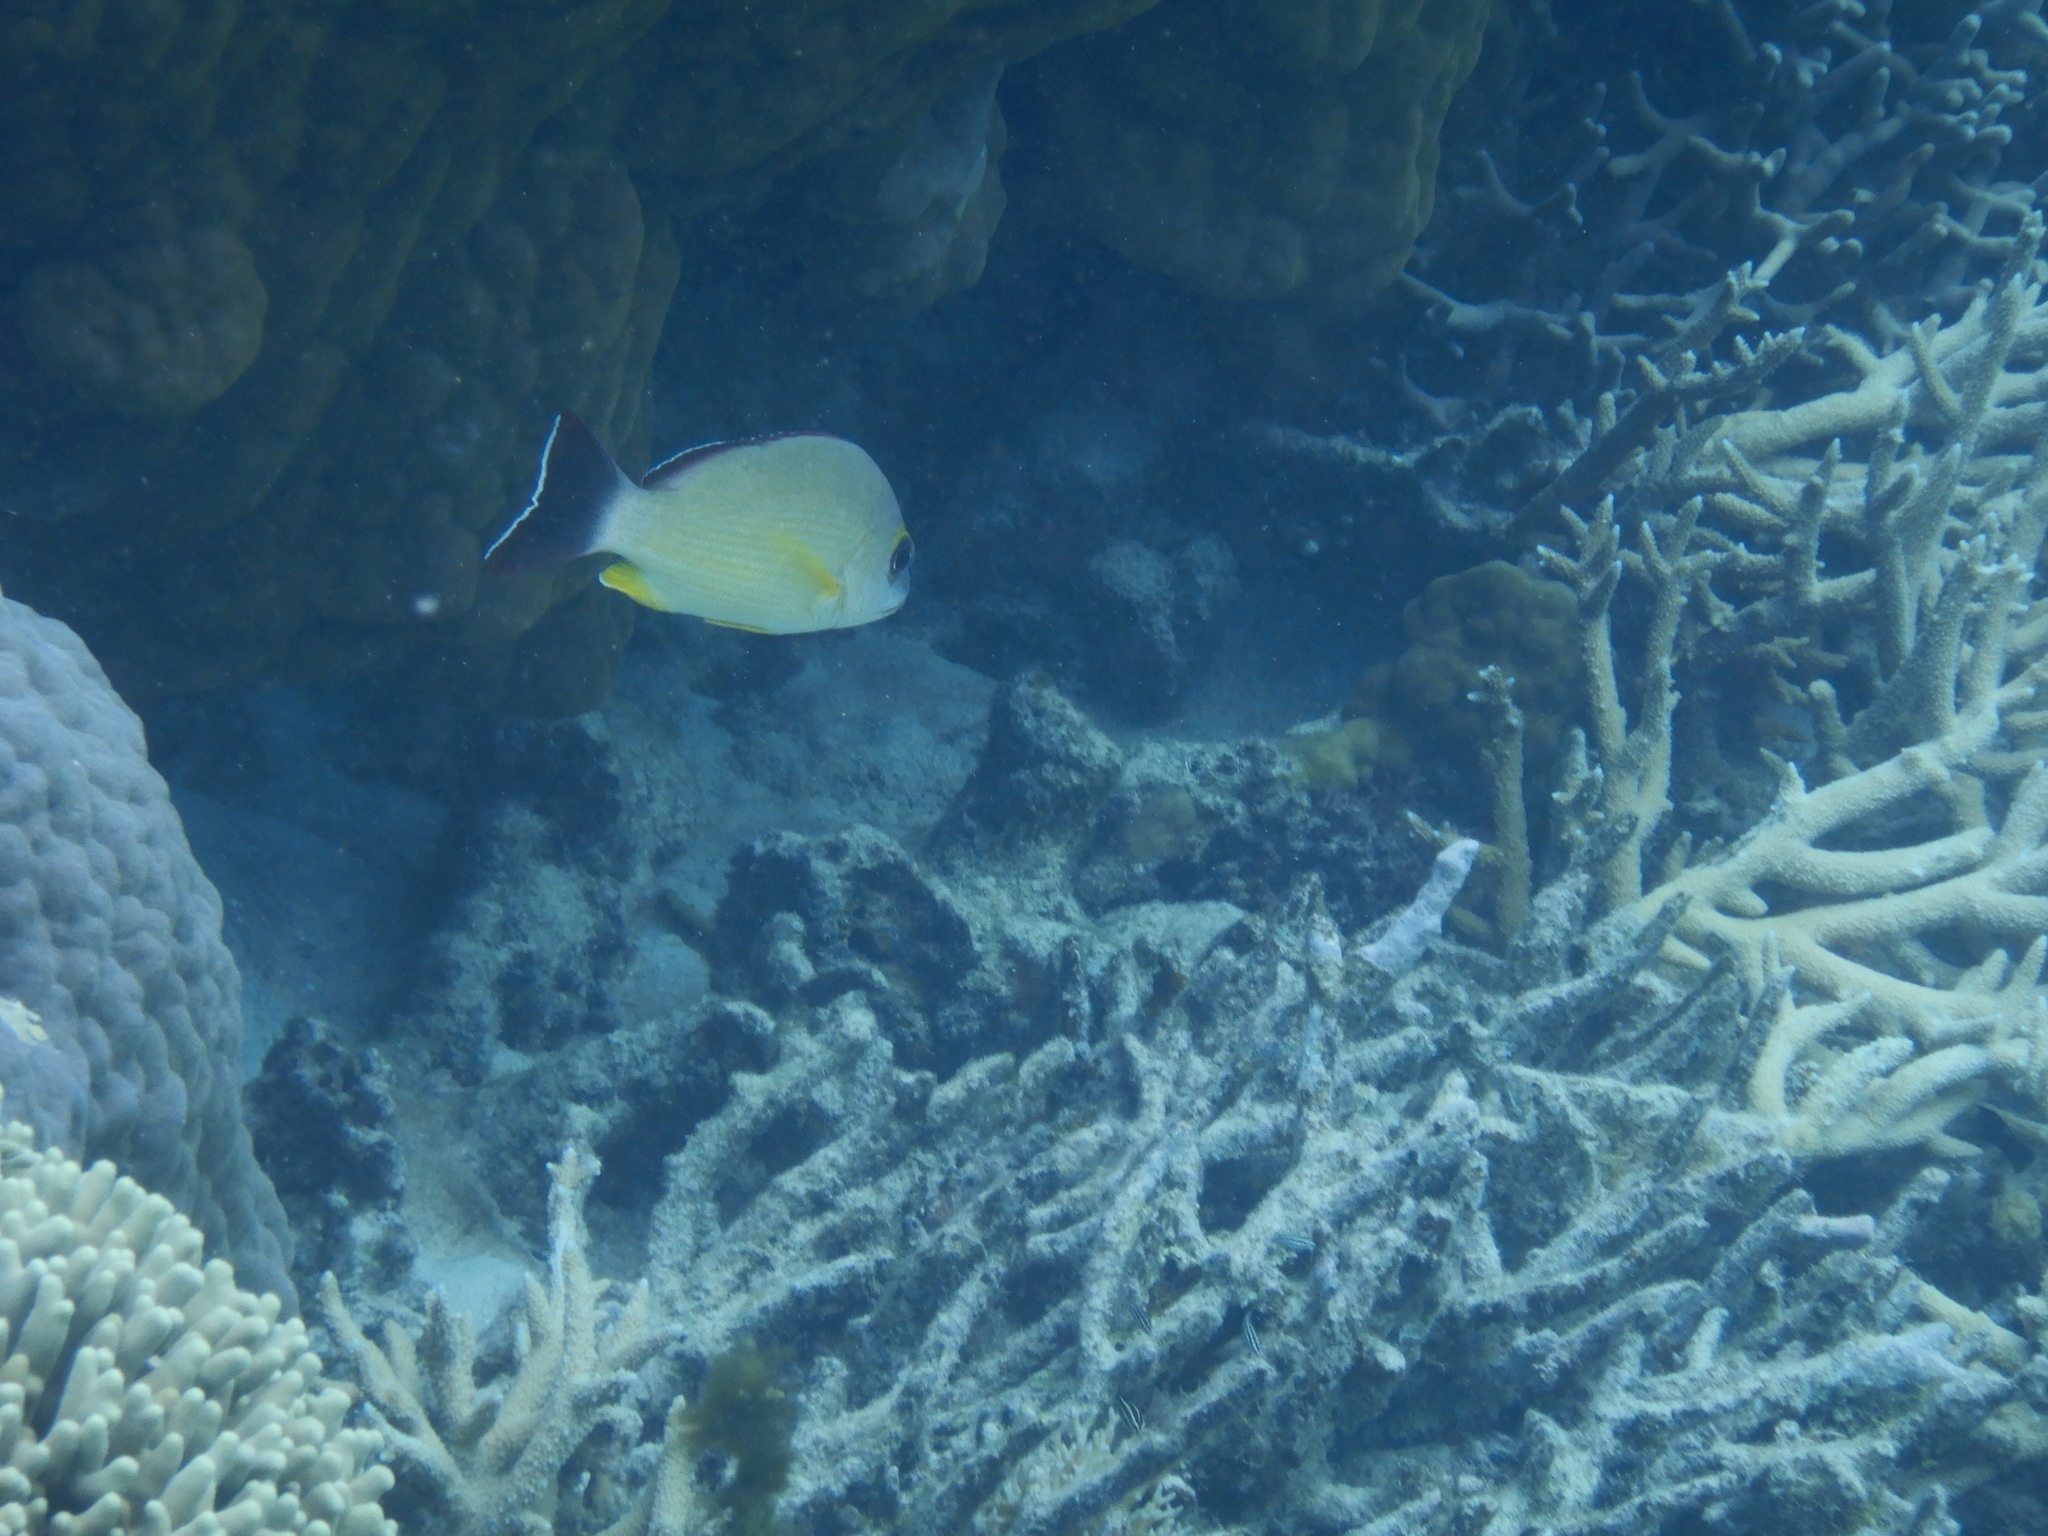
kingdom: Animalia
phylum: Chordata
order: Perciformes
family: Lutjanidae
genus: Lutjanus
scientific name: Lutjanus fulvus
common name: Blacktail snapper
